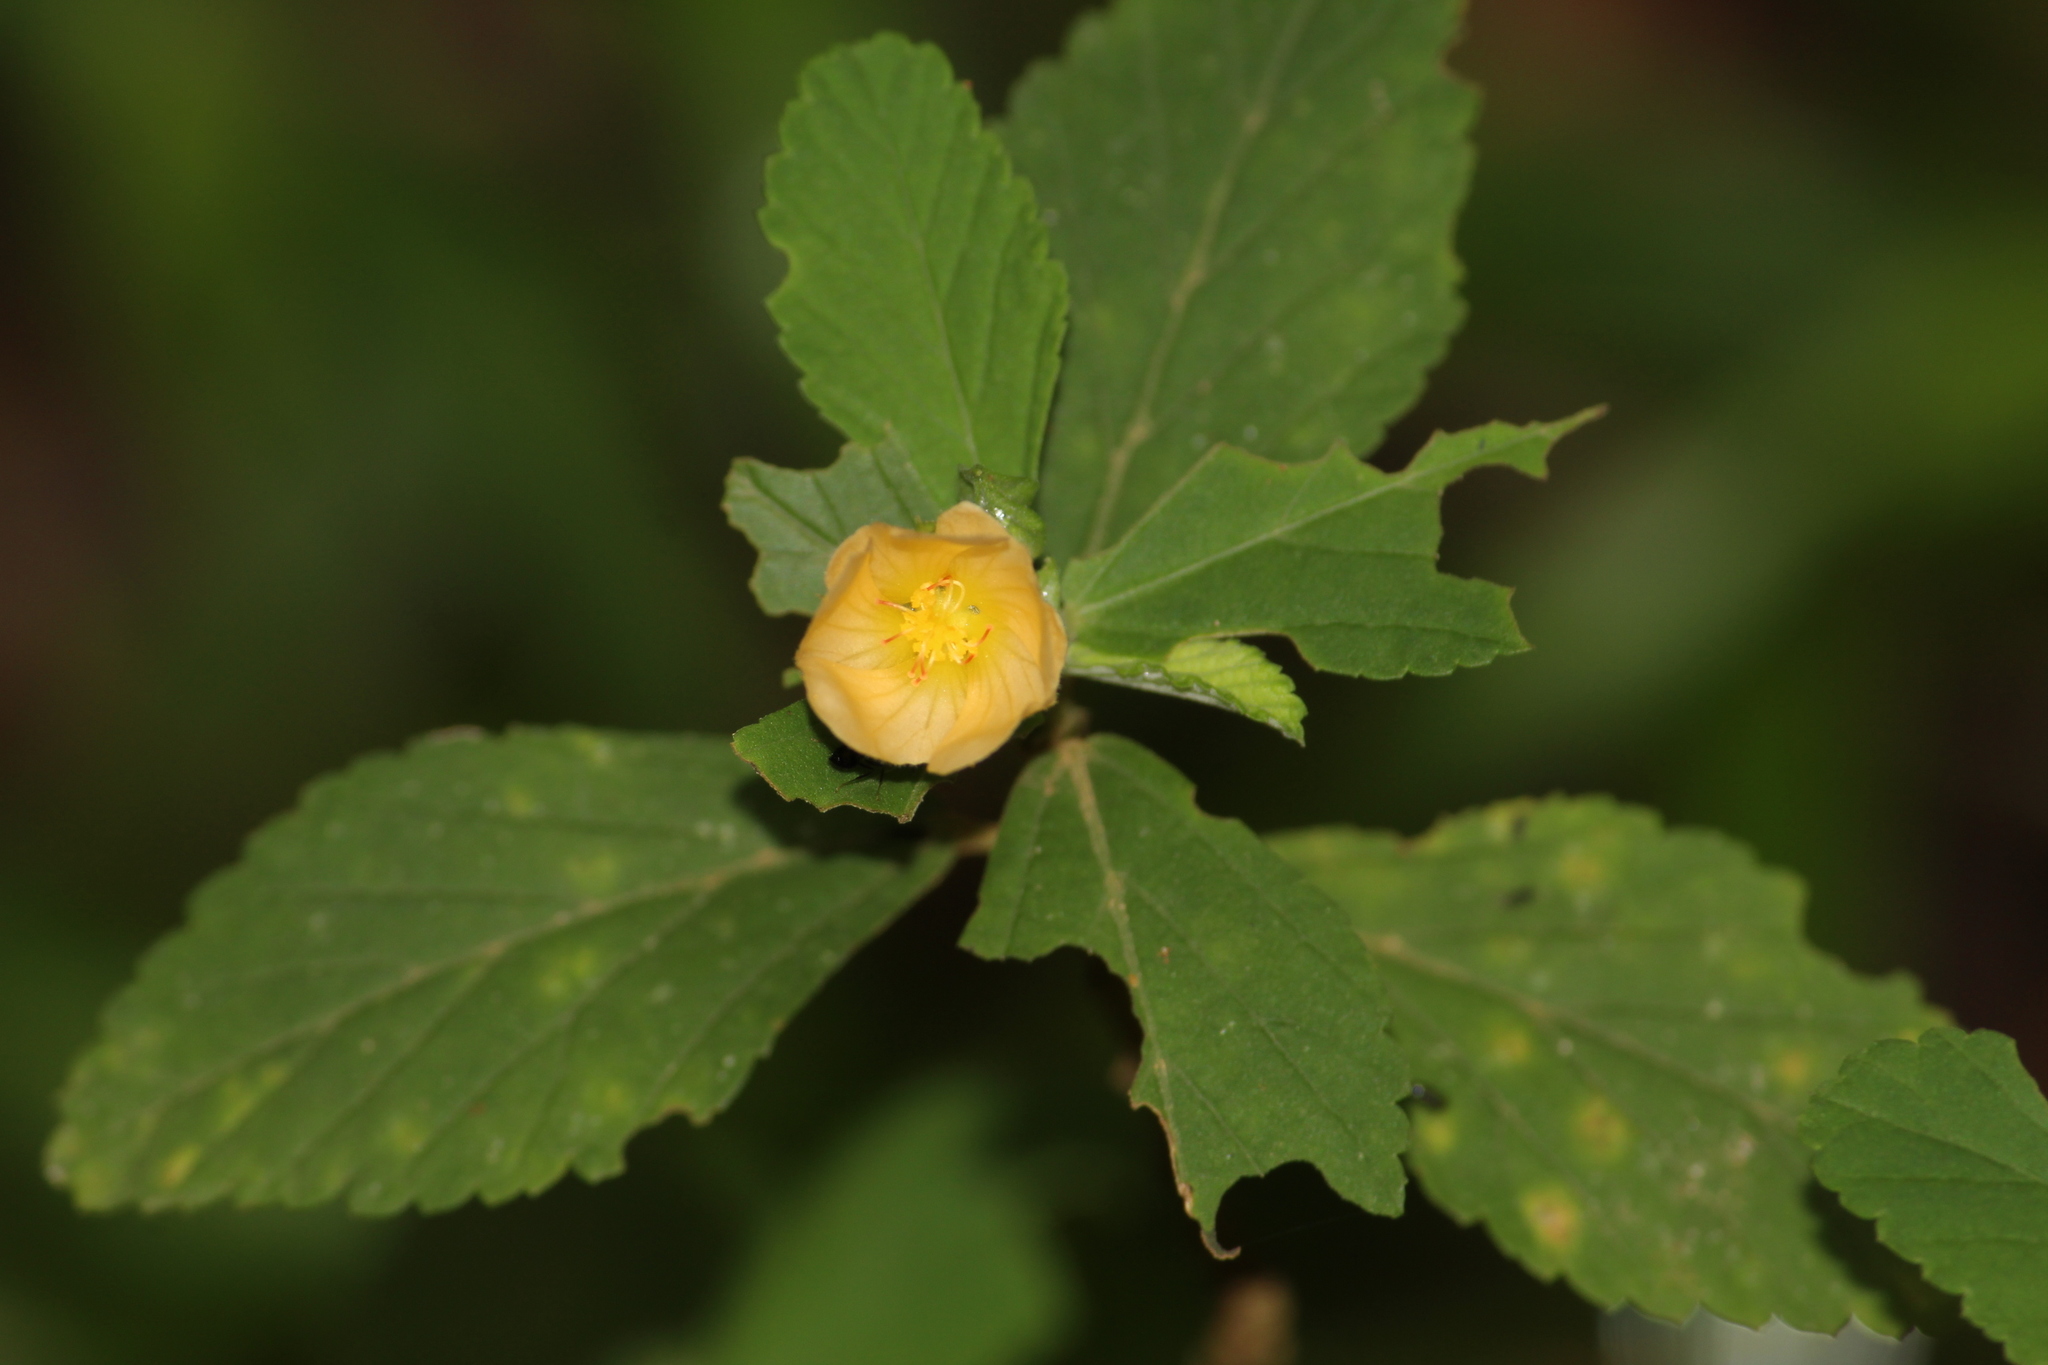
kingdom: Plantae
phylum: Tracheophyta
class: Magnoliopsida
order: Malvales
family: Malvaceae
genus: Sida
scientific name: Sida rhombifolia
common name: Queensland-hemp
